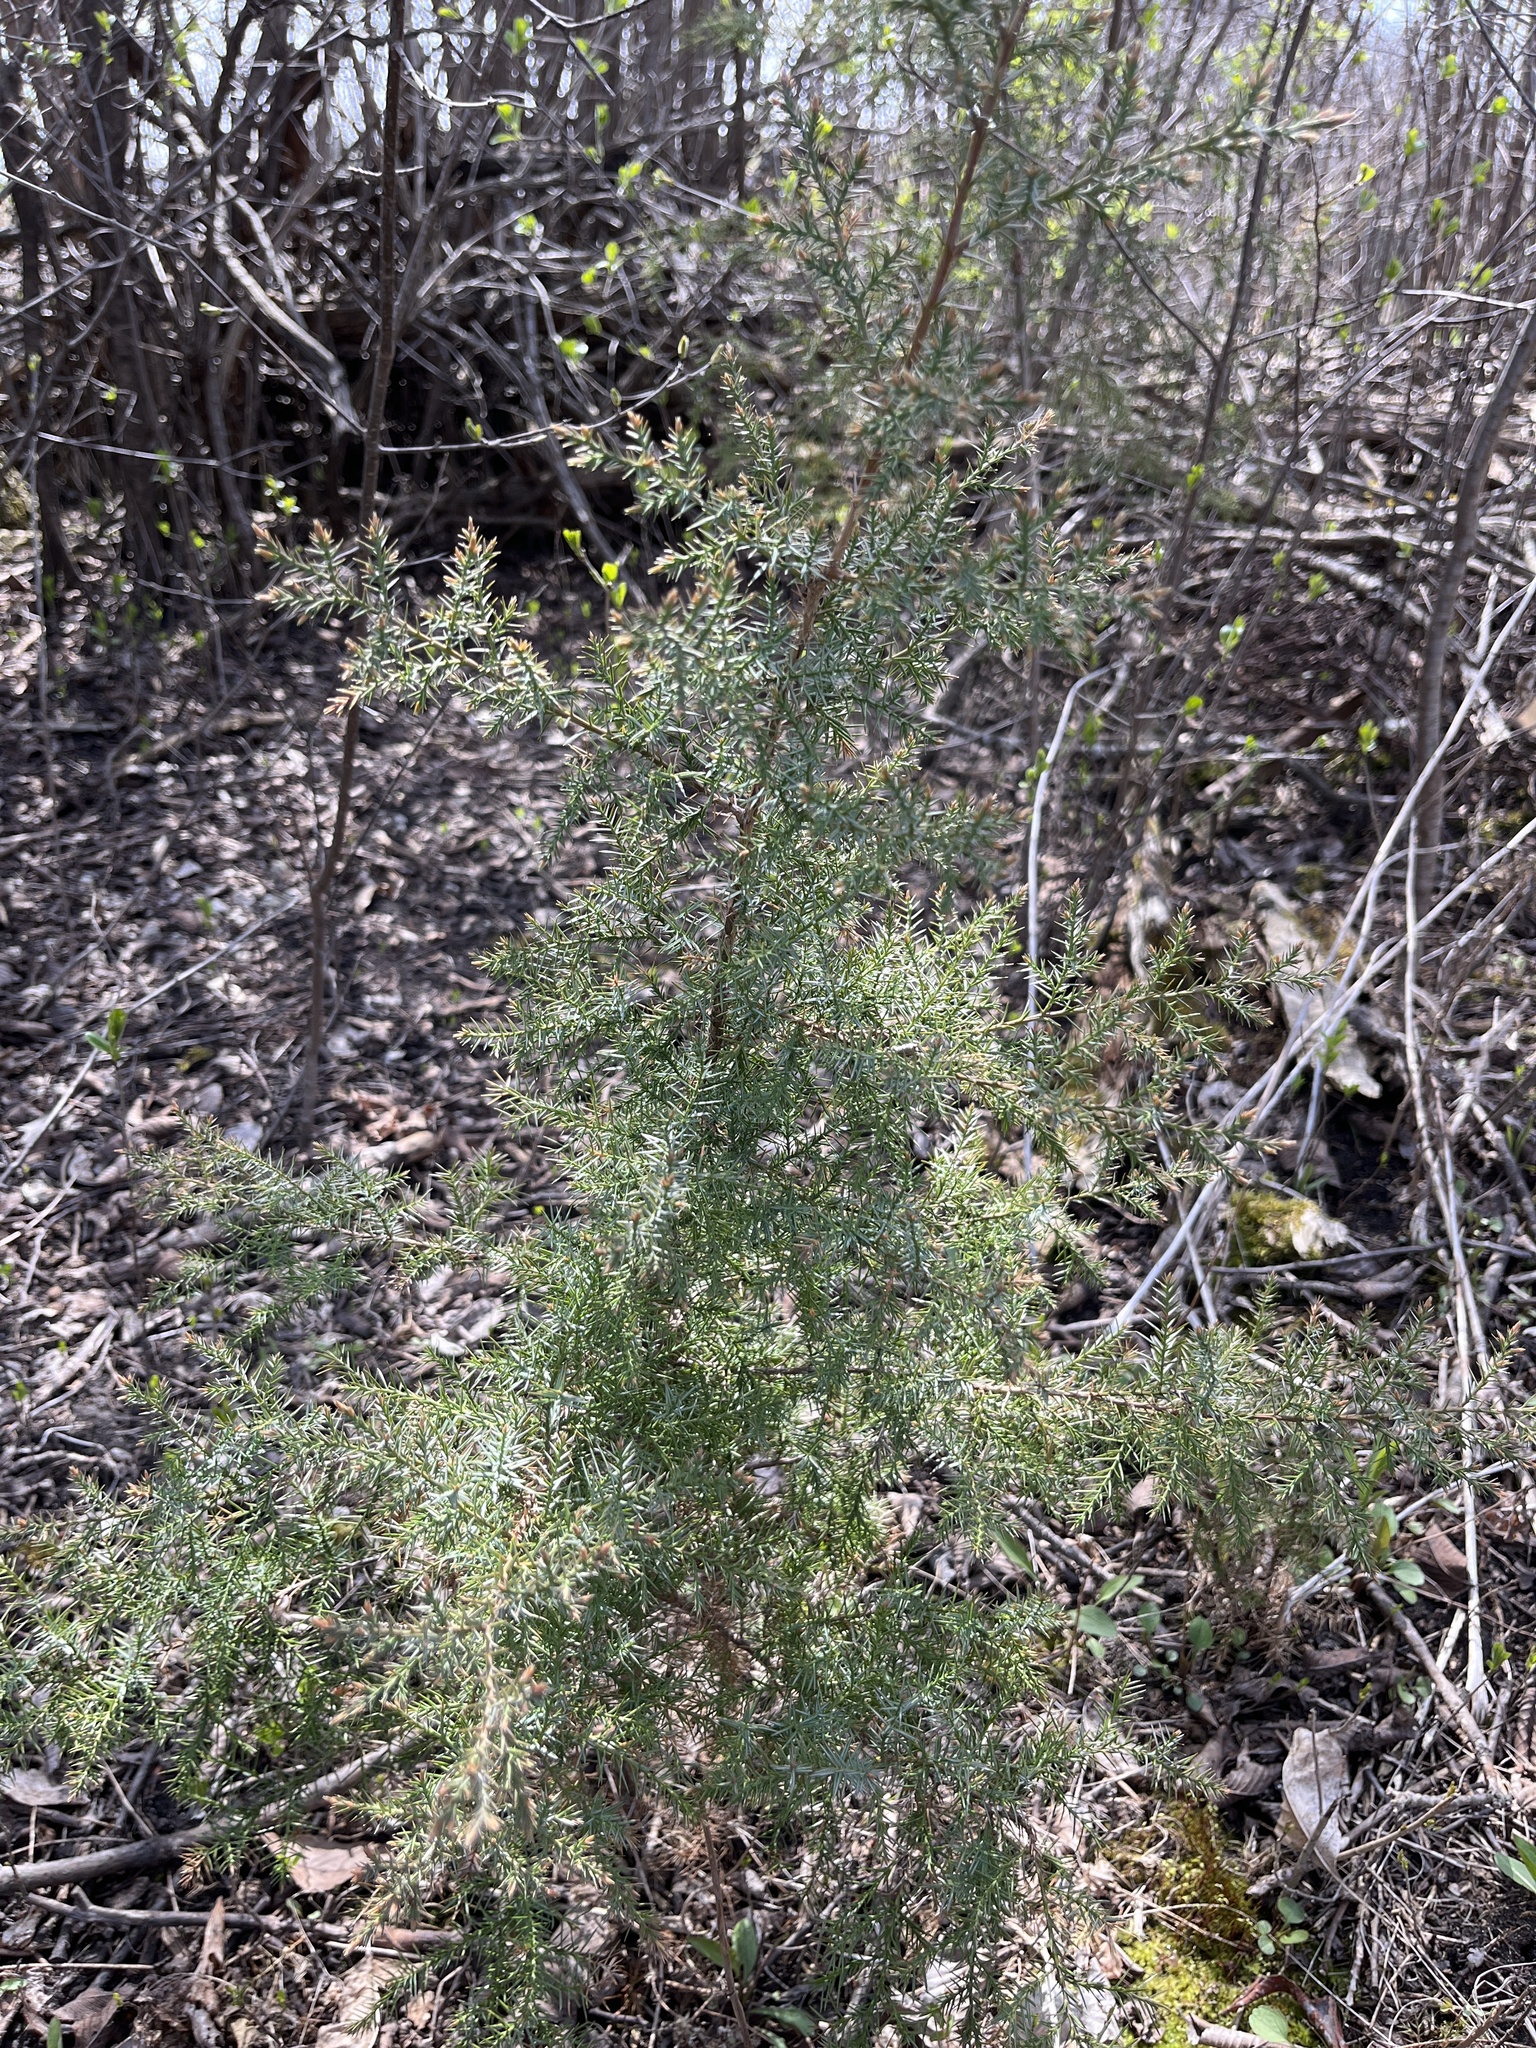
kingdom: Plantae
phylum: Tracheophyta
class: Pinopsida
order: Pinales
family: Cupressaceae
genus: Juniperus
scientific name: Juniperus virginiana
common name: Red juniper
